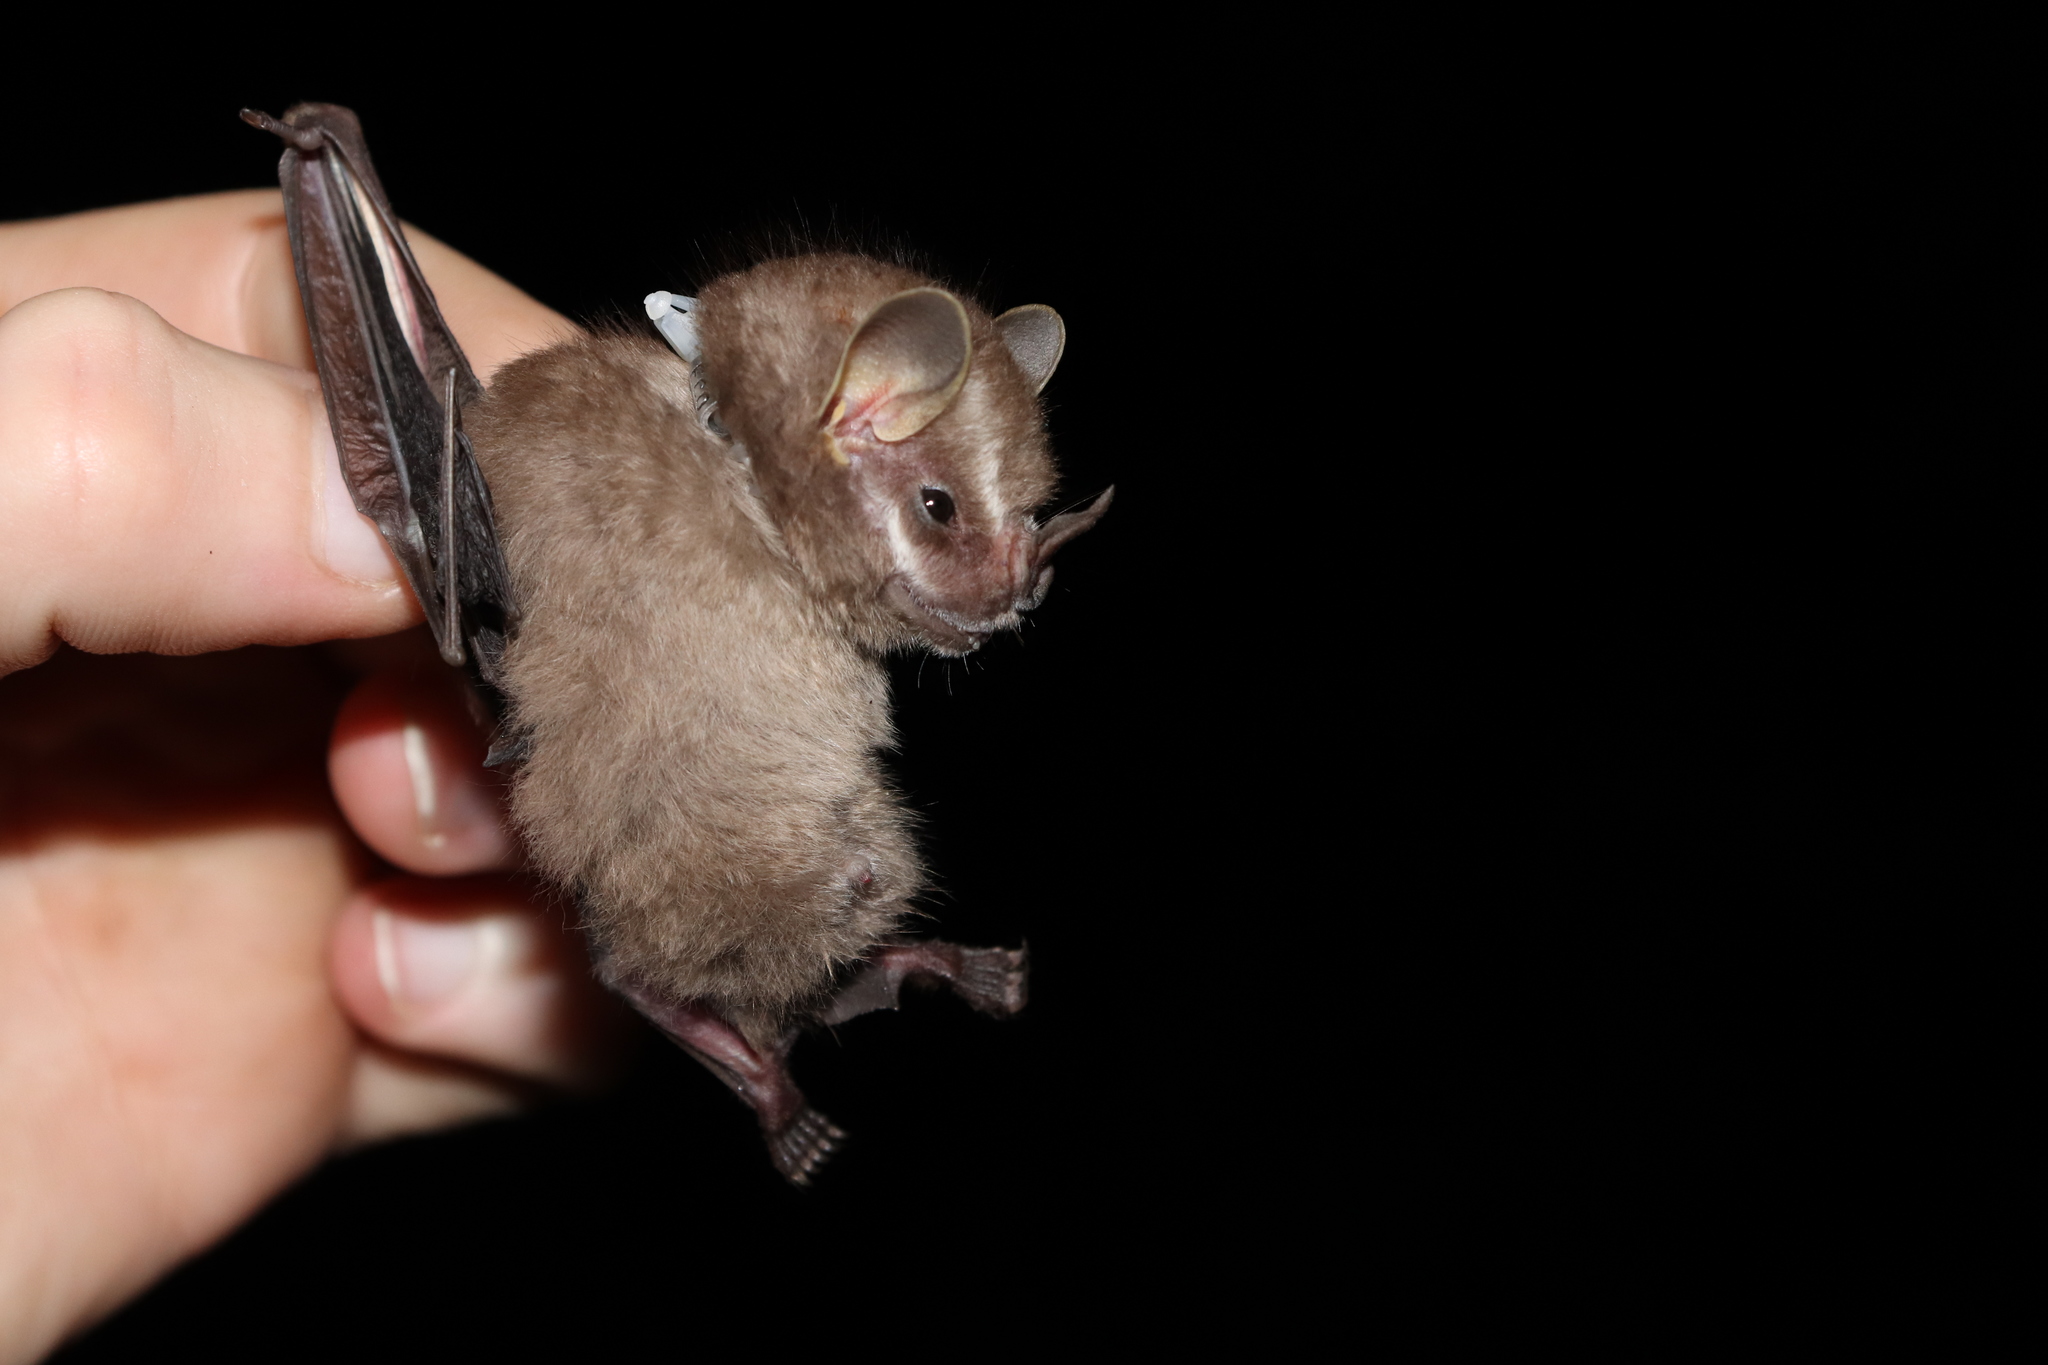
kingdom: Animalia
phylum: Chordata
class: Mammalia
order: Chiroptera
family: Phyllostomidae
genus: Vampyressa
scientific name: Vampyressa pusilla
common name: Southern little yellow-eared bat
